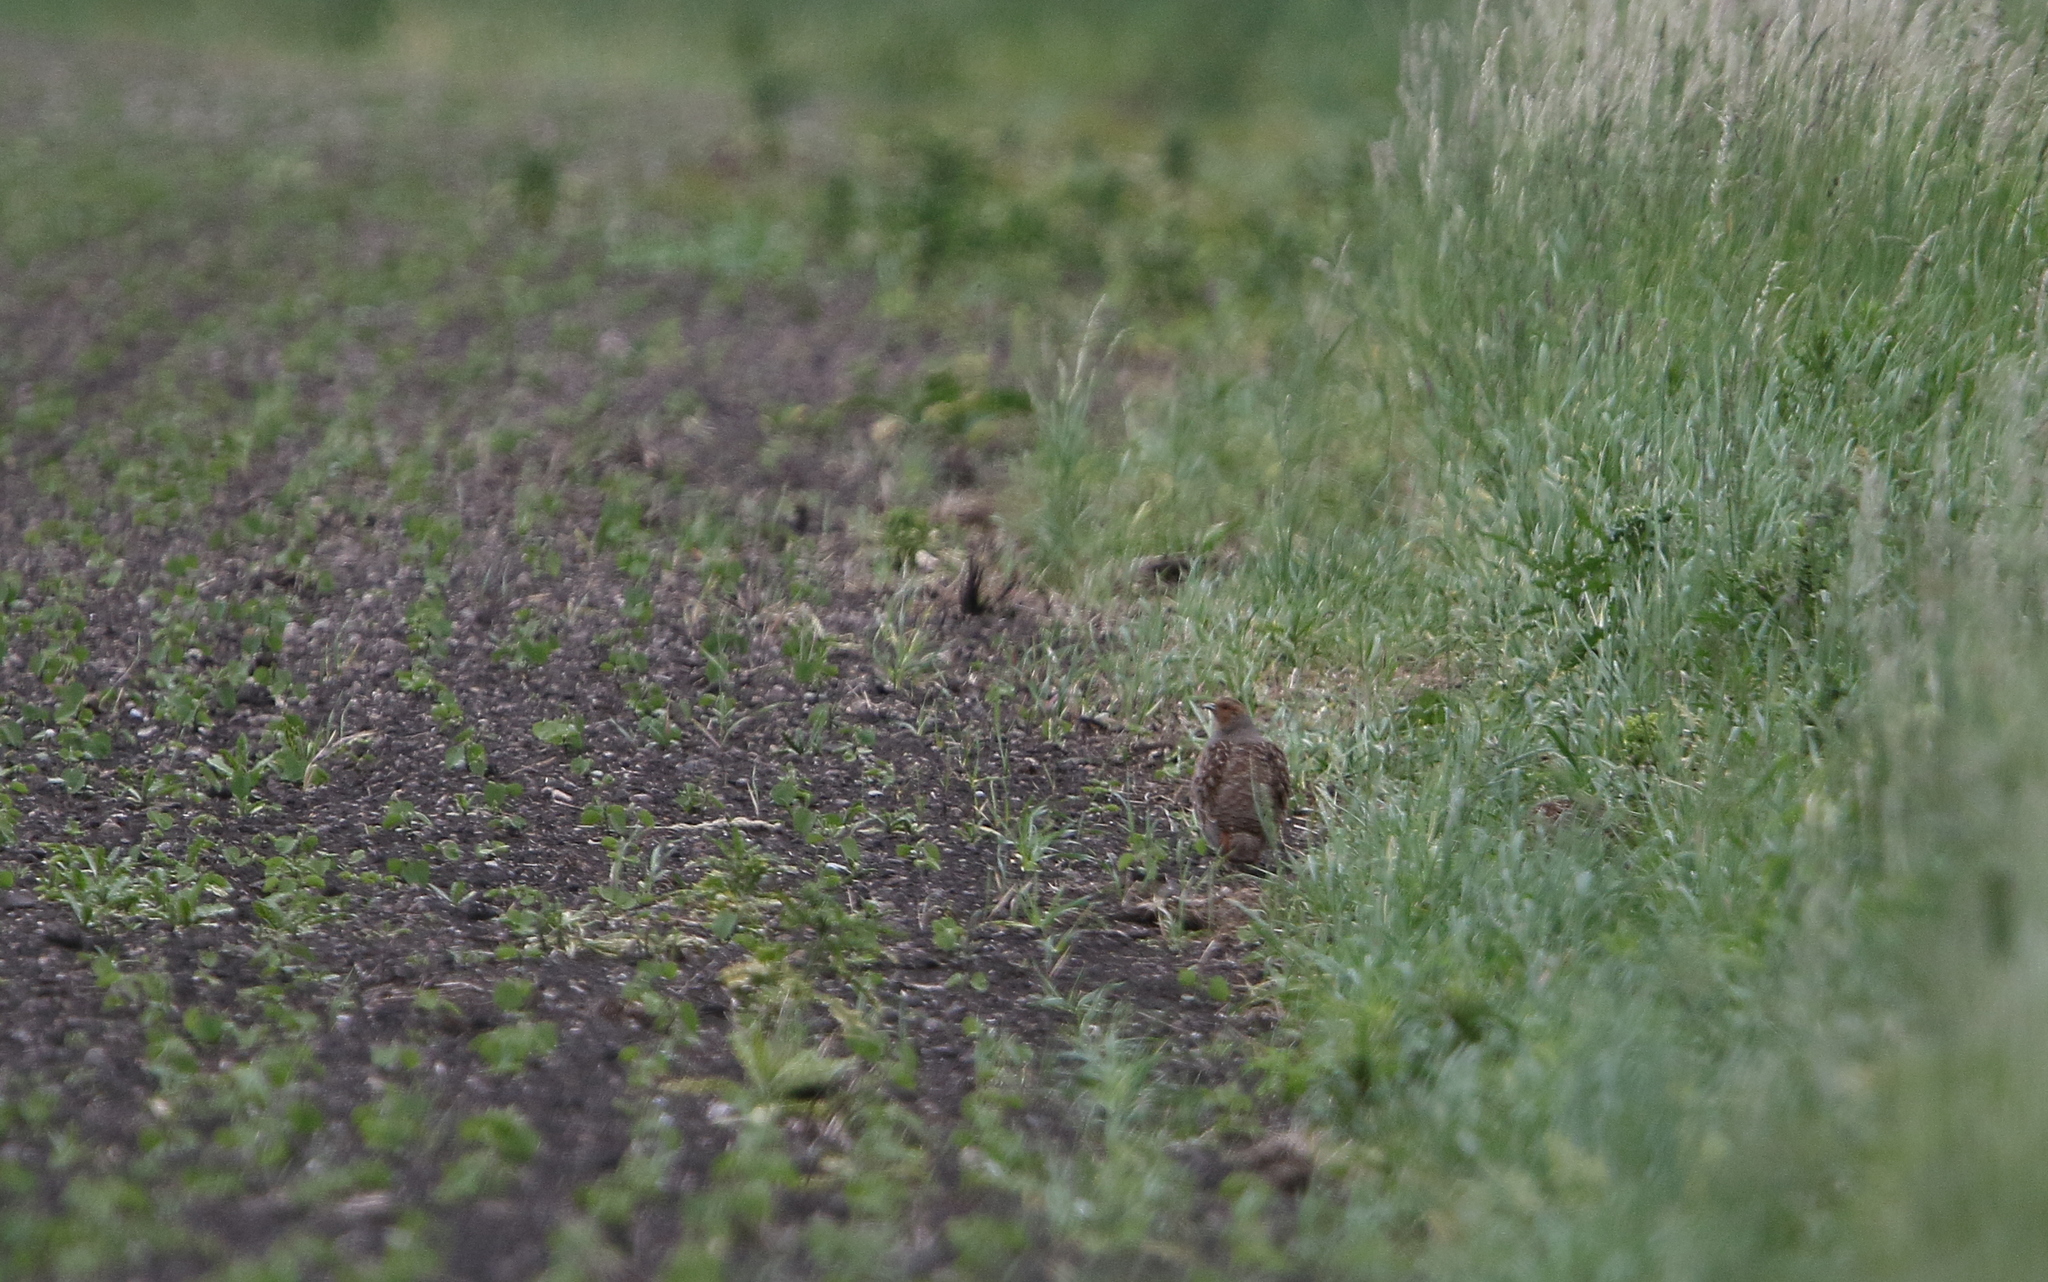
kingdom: Animalia
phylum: Chordata
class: Aves
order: Galliformes
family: Phasianidae
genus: Perdix
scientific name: Perdix perdix
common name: Grey partridge
